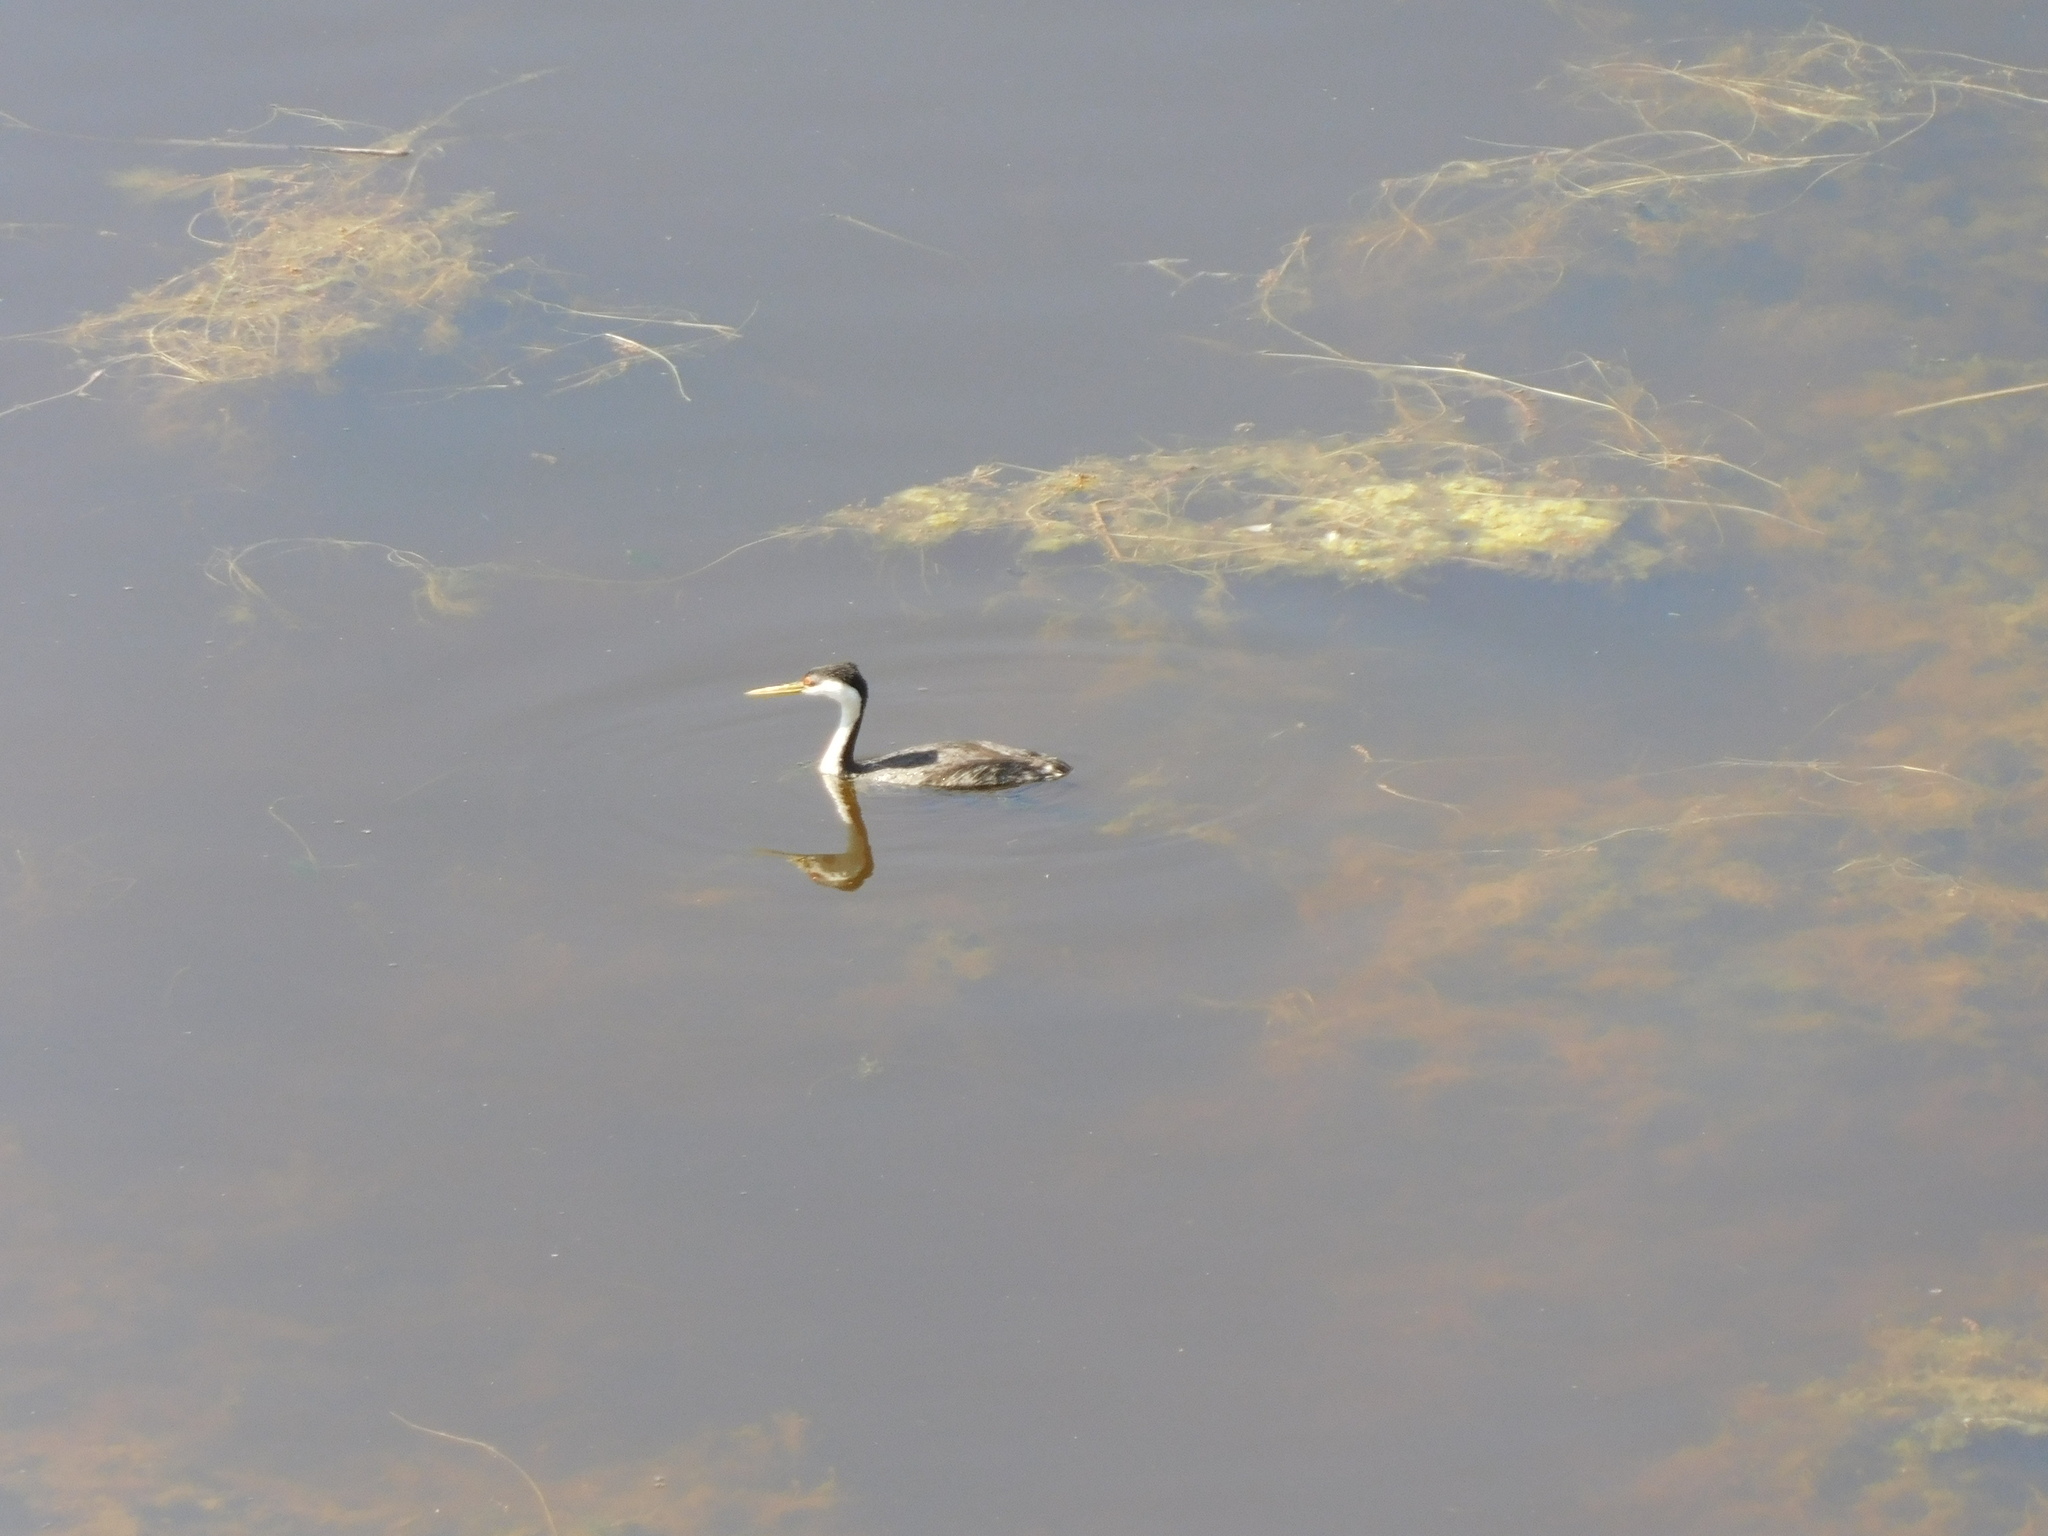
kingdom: Animalia
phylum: Chordata
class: Aves
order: Podicipediformes
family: Podicipedidae
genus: Aechmophorus
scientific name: Aechmophorus occidentalis
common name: Western grebe
